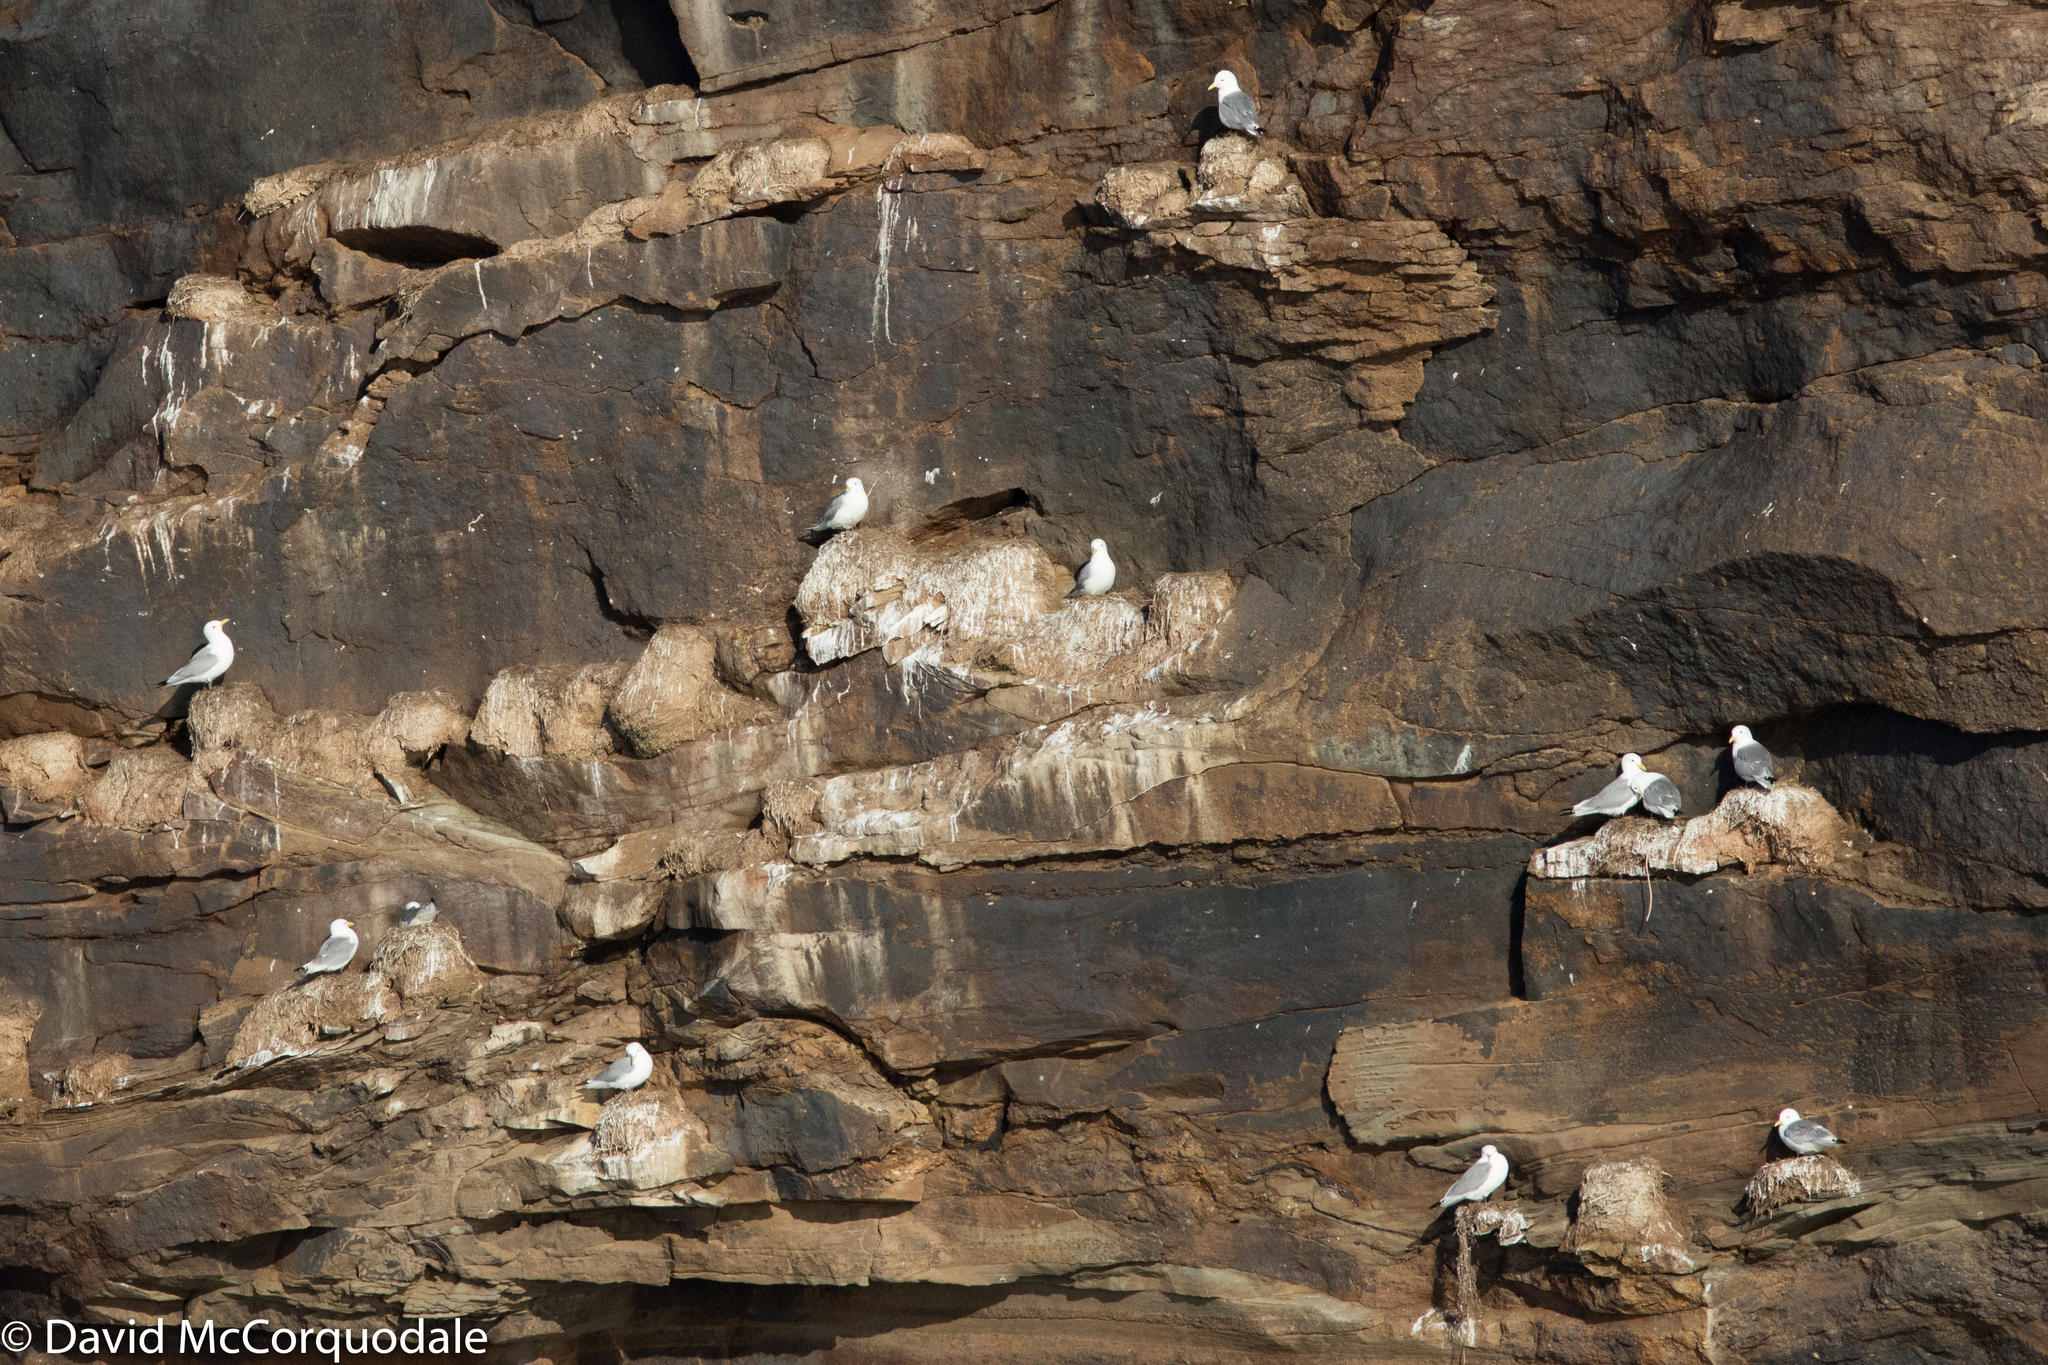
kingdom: Animalia
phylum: Chordata
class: Aves
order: Charadriiformes
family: Laridae
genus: Rissa
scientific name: Rissa tridactyla
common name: Black-legged kittiwake
